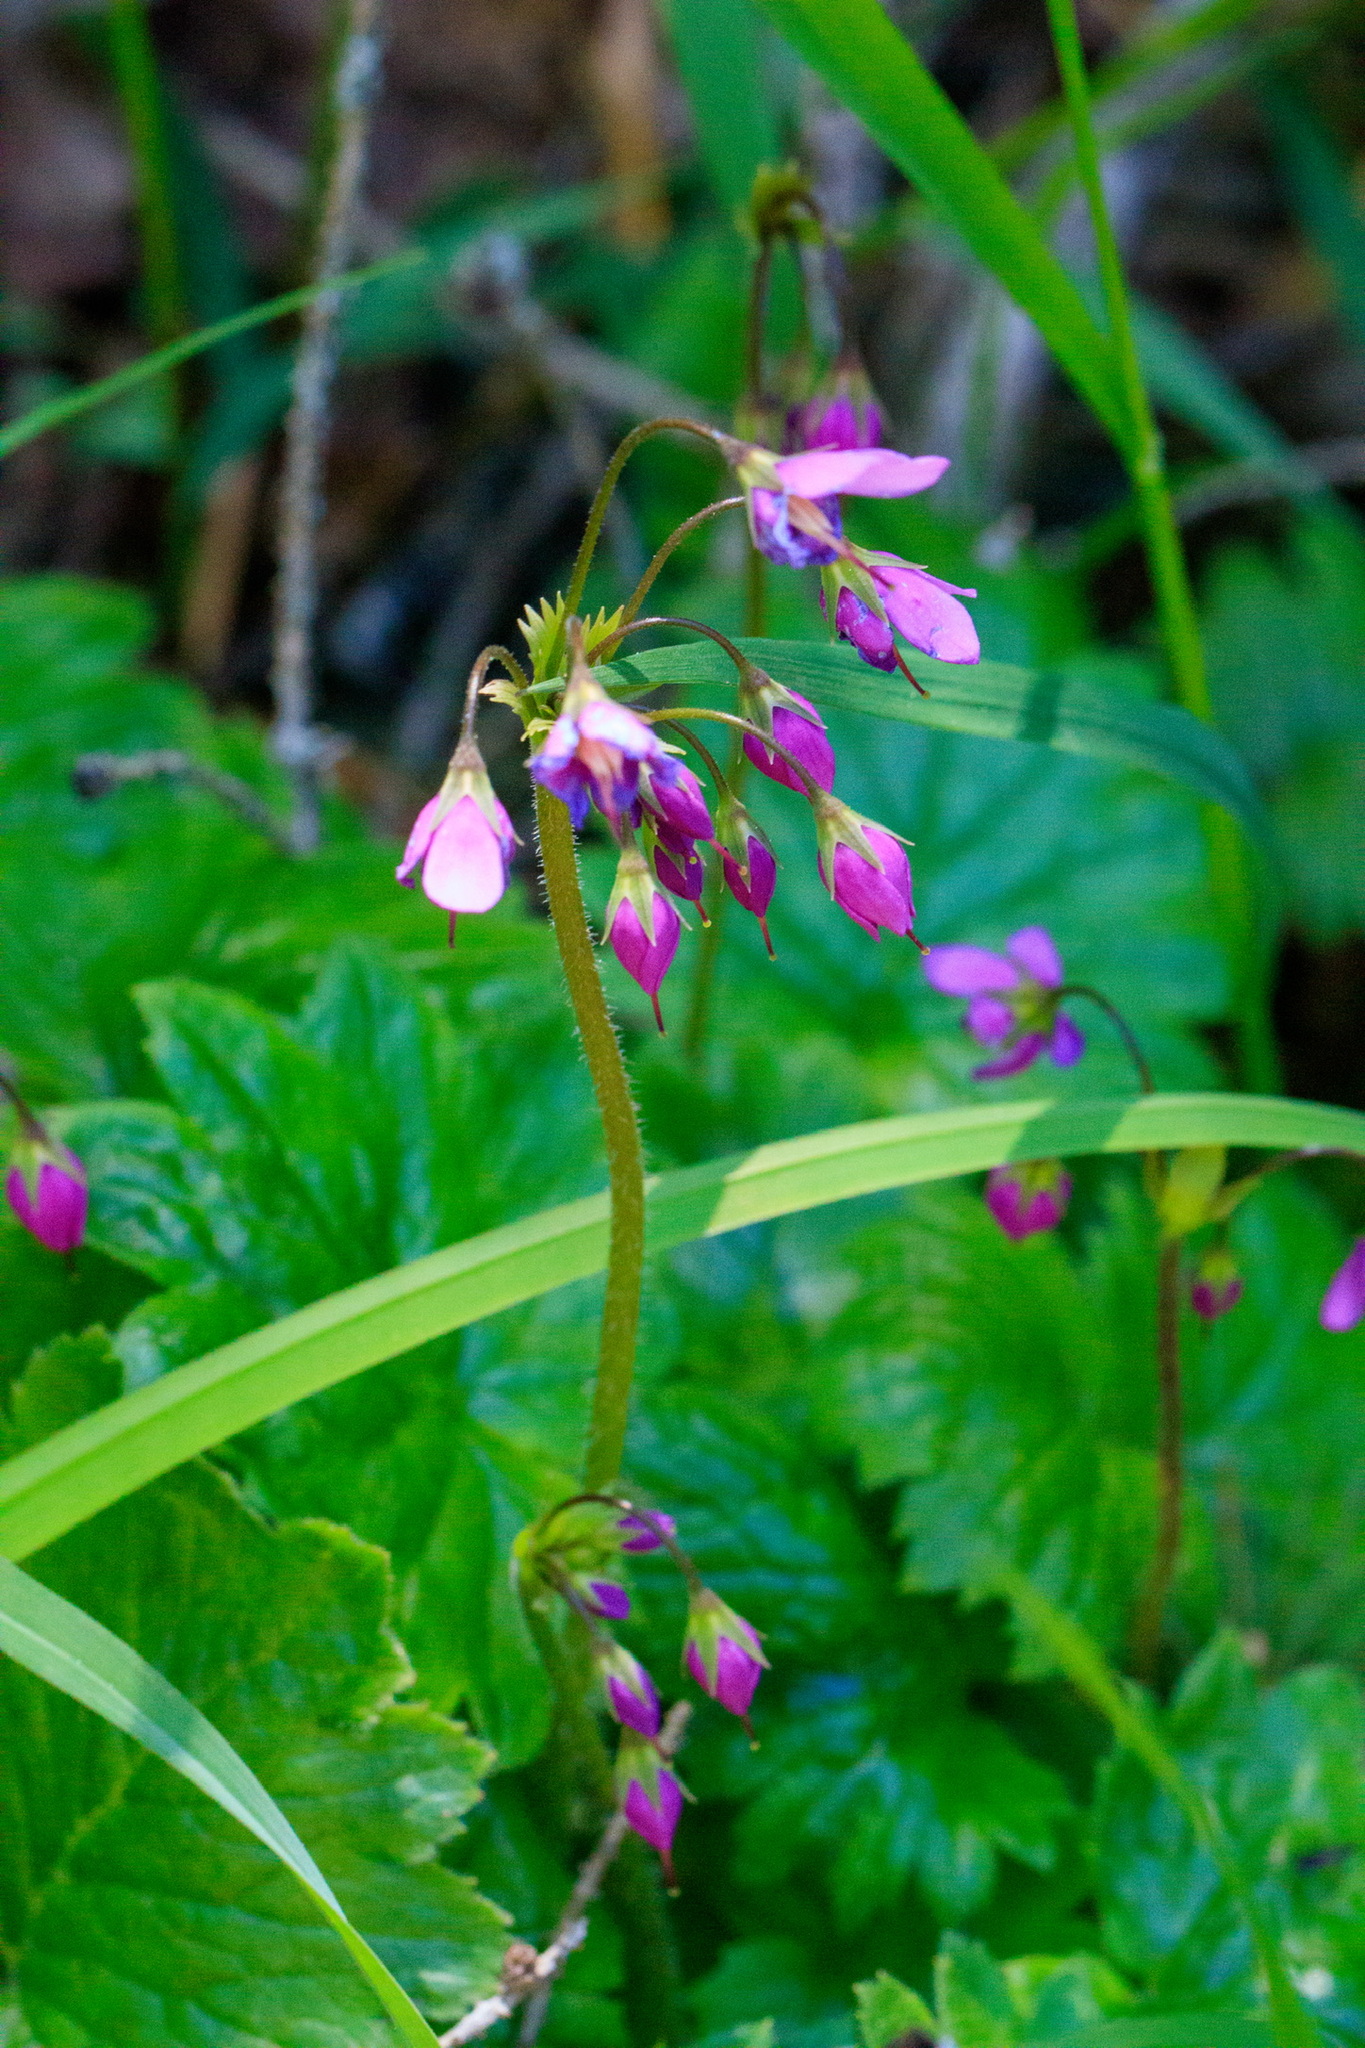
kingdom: Plantae
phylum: Tracheophyta
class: Magnoliopsida
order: Ericales
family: Primulaceae
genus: Primula
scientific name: Primula matthioli
